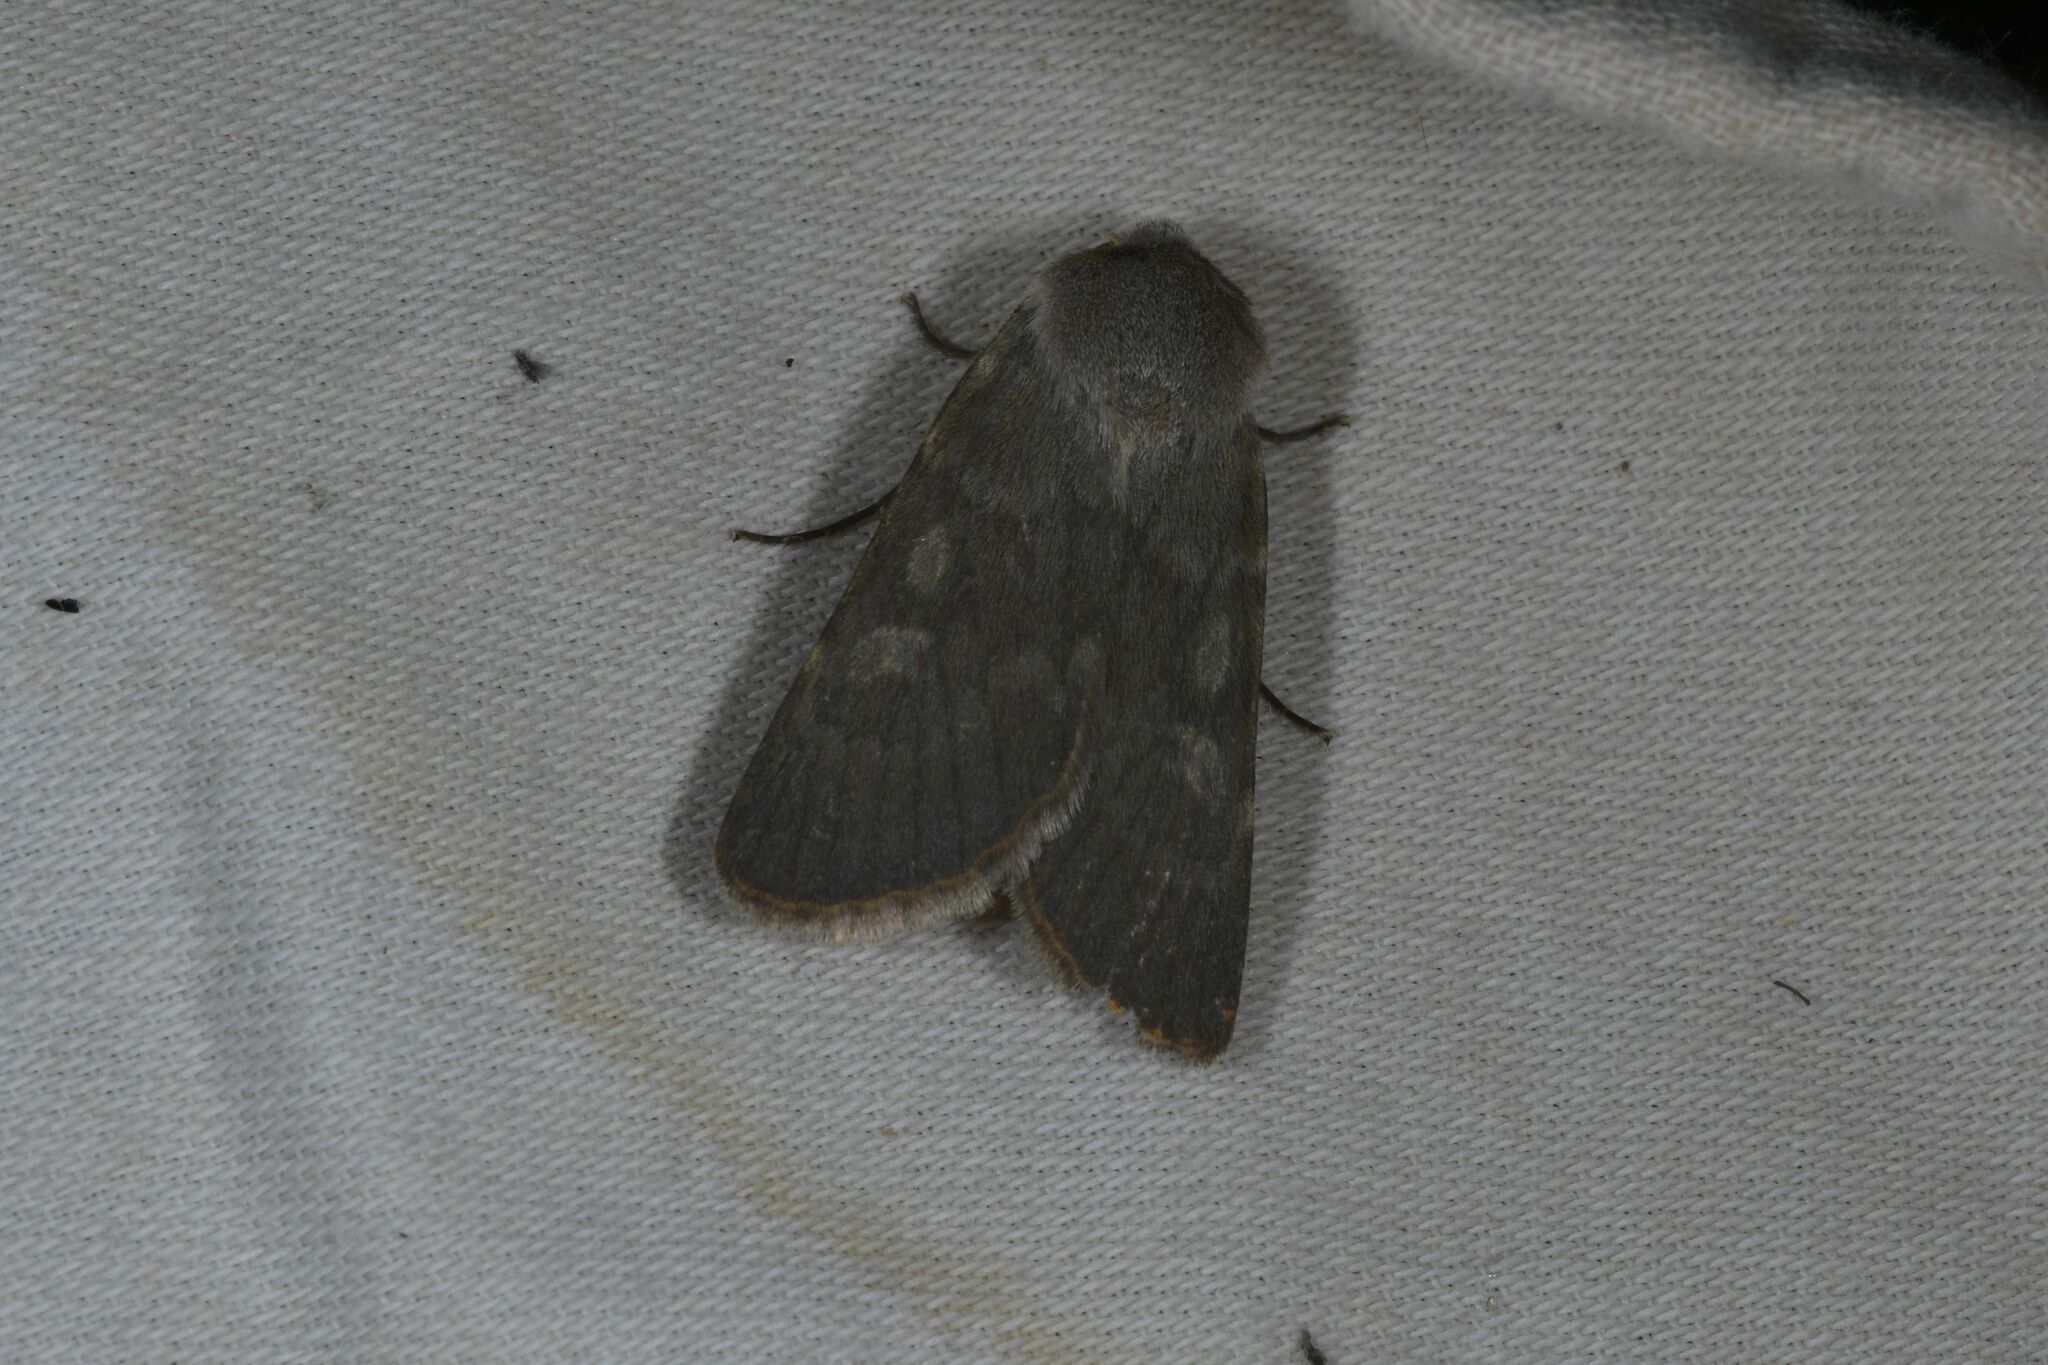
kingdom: Animalia
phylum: Arthropoda
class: Insecta
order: Lepidoptera
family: Noctuidae
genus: Euxoa
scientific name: Euxoa decora
